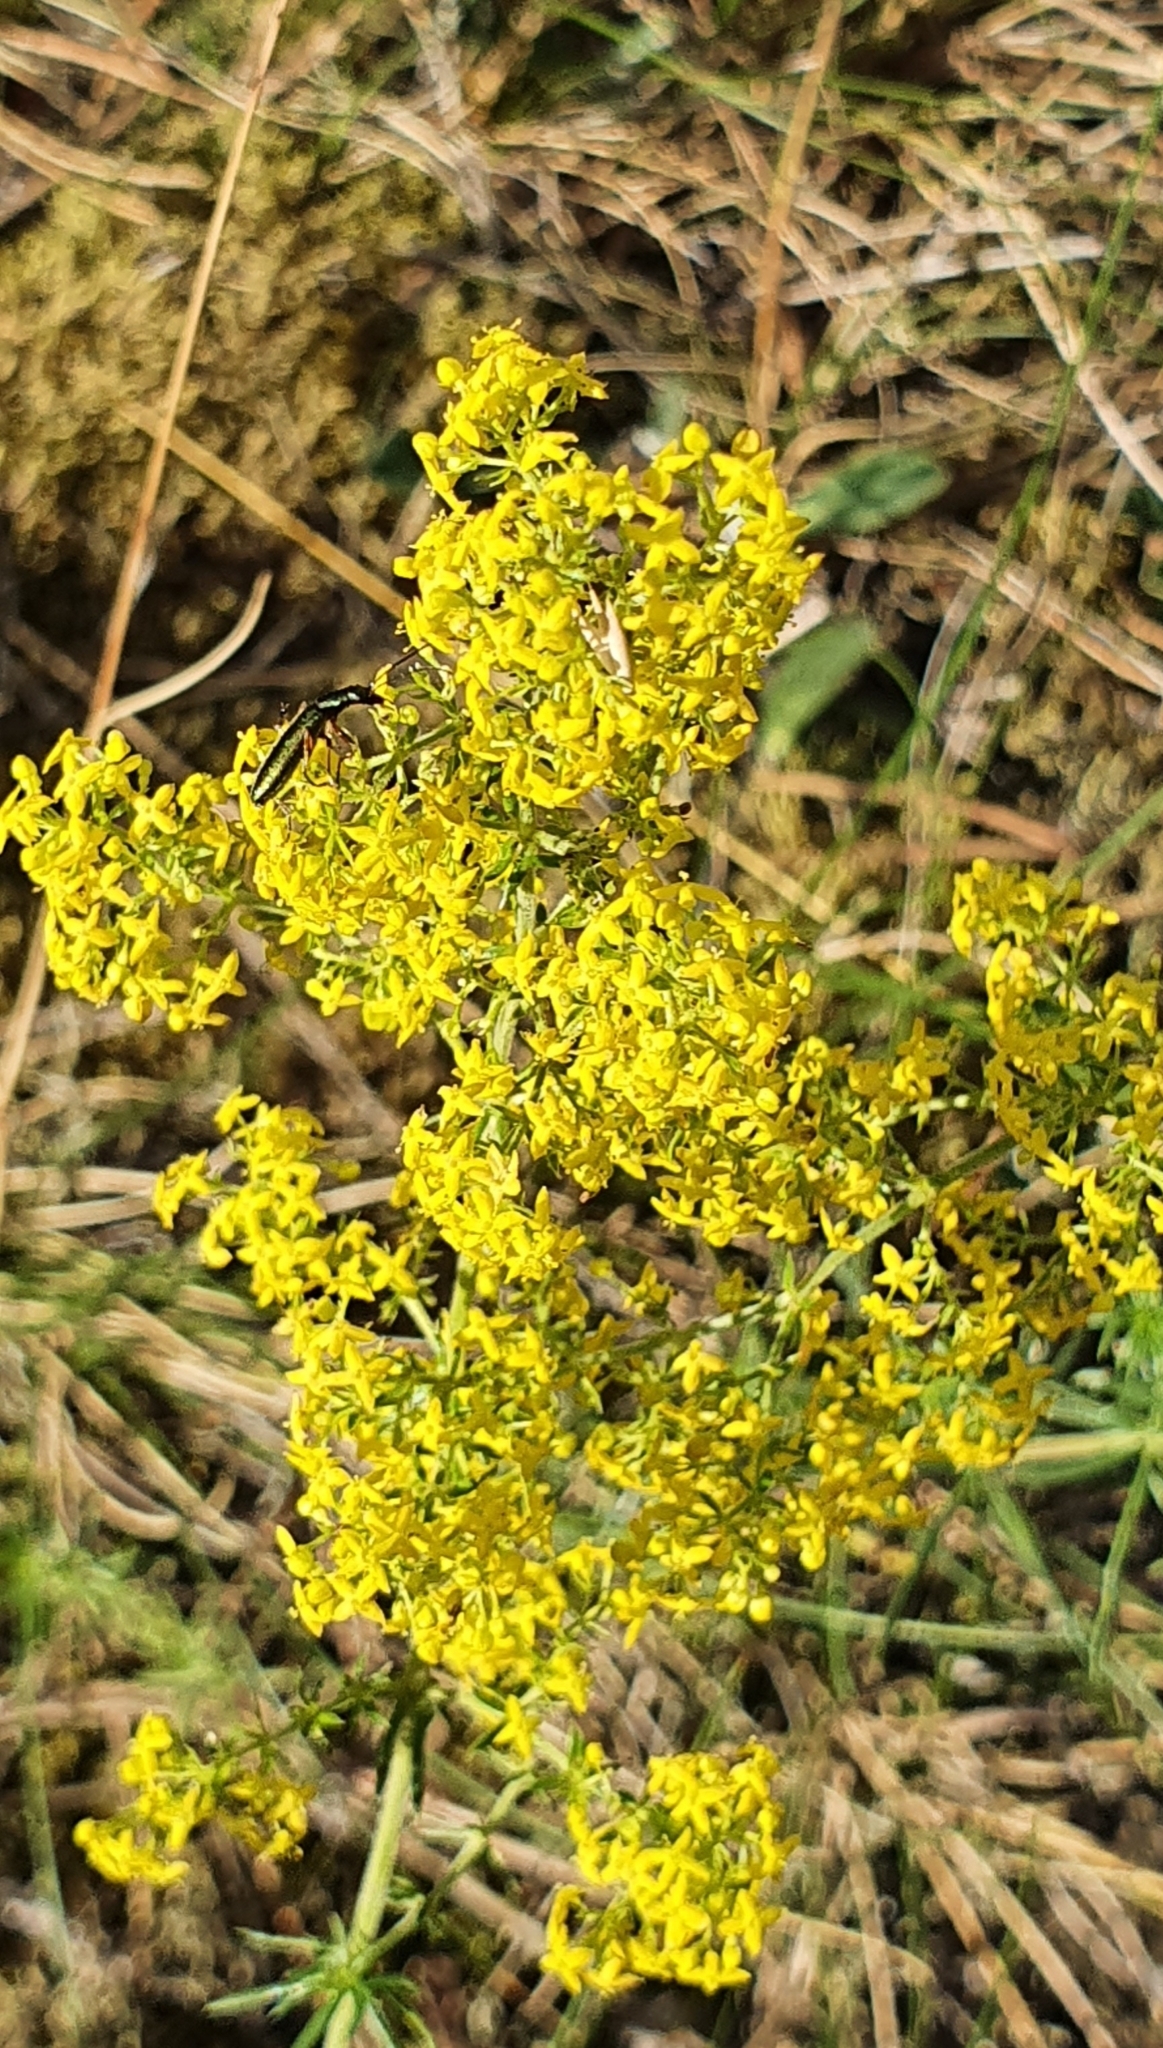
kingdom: Plantae
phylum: Tracheophyta
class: Magnoliopsida
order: Gentianales
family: Rubiaceae
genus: Galium
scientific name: Galium verum
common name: Lady's bedstraw
